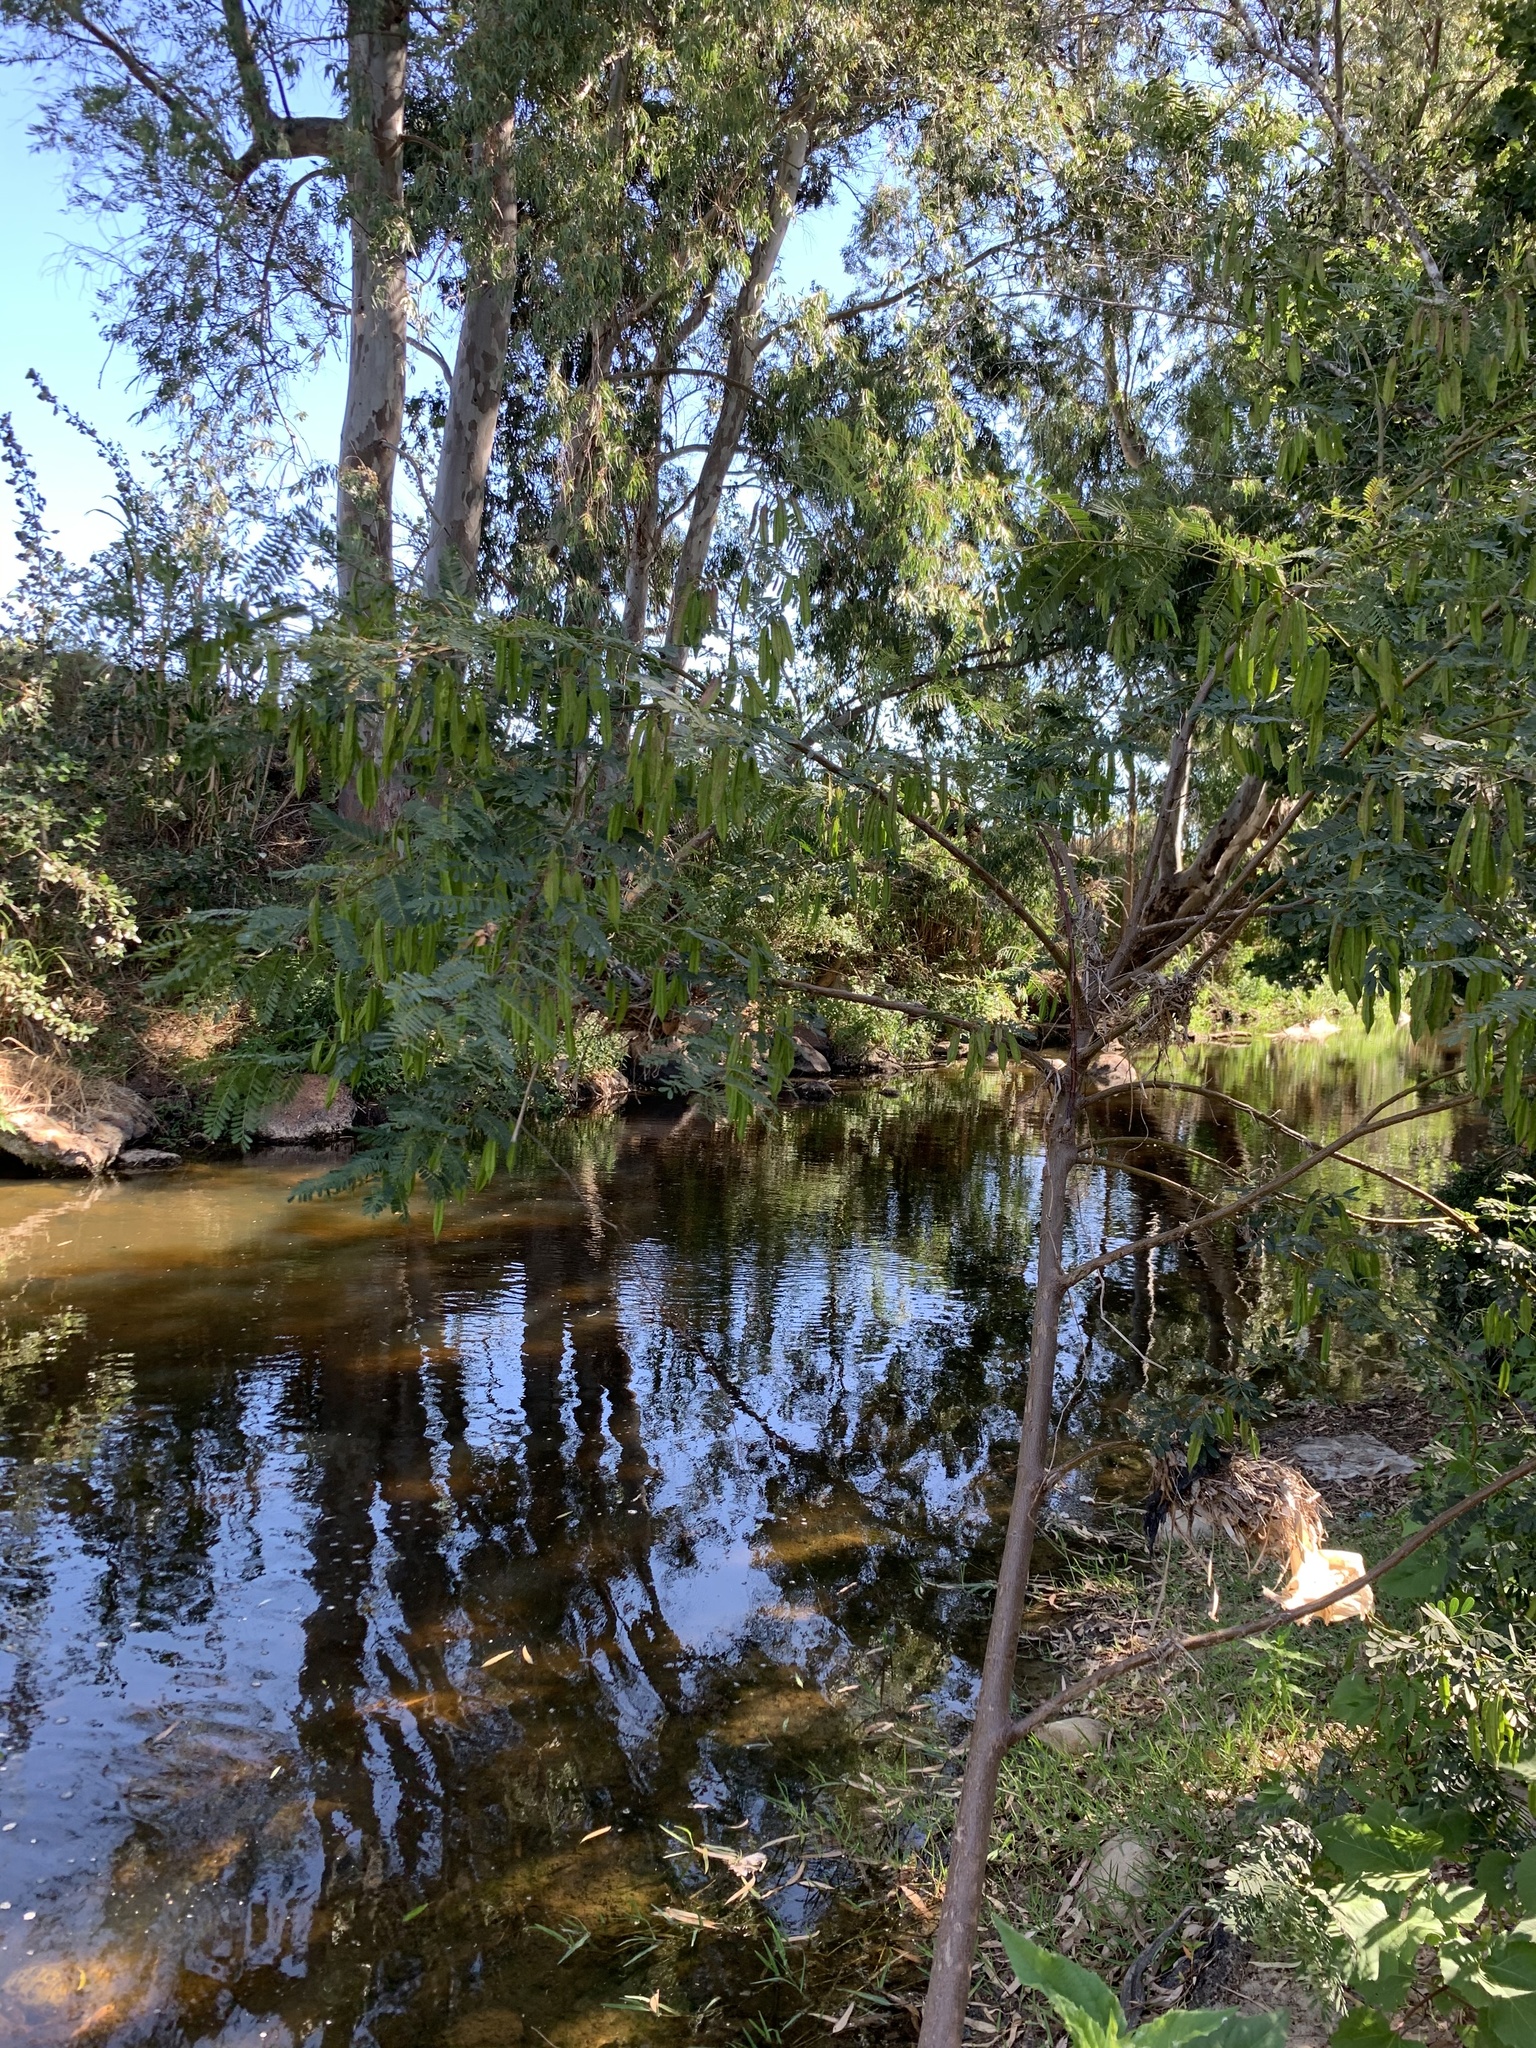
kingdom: Plantae
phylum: Tracheophyta
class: Magnoliopsida
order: Fabales
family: Fabaceae
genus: Sesbania
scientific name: Sesbania punicea
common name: Rattlebox
